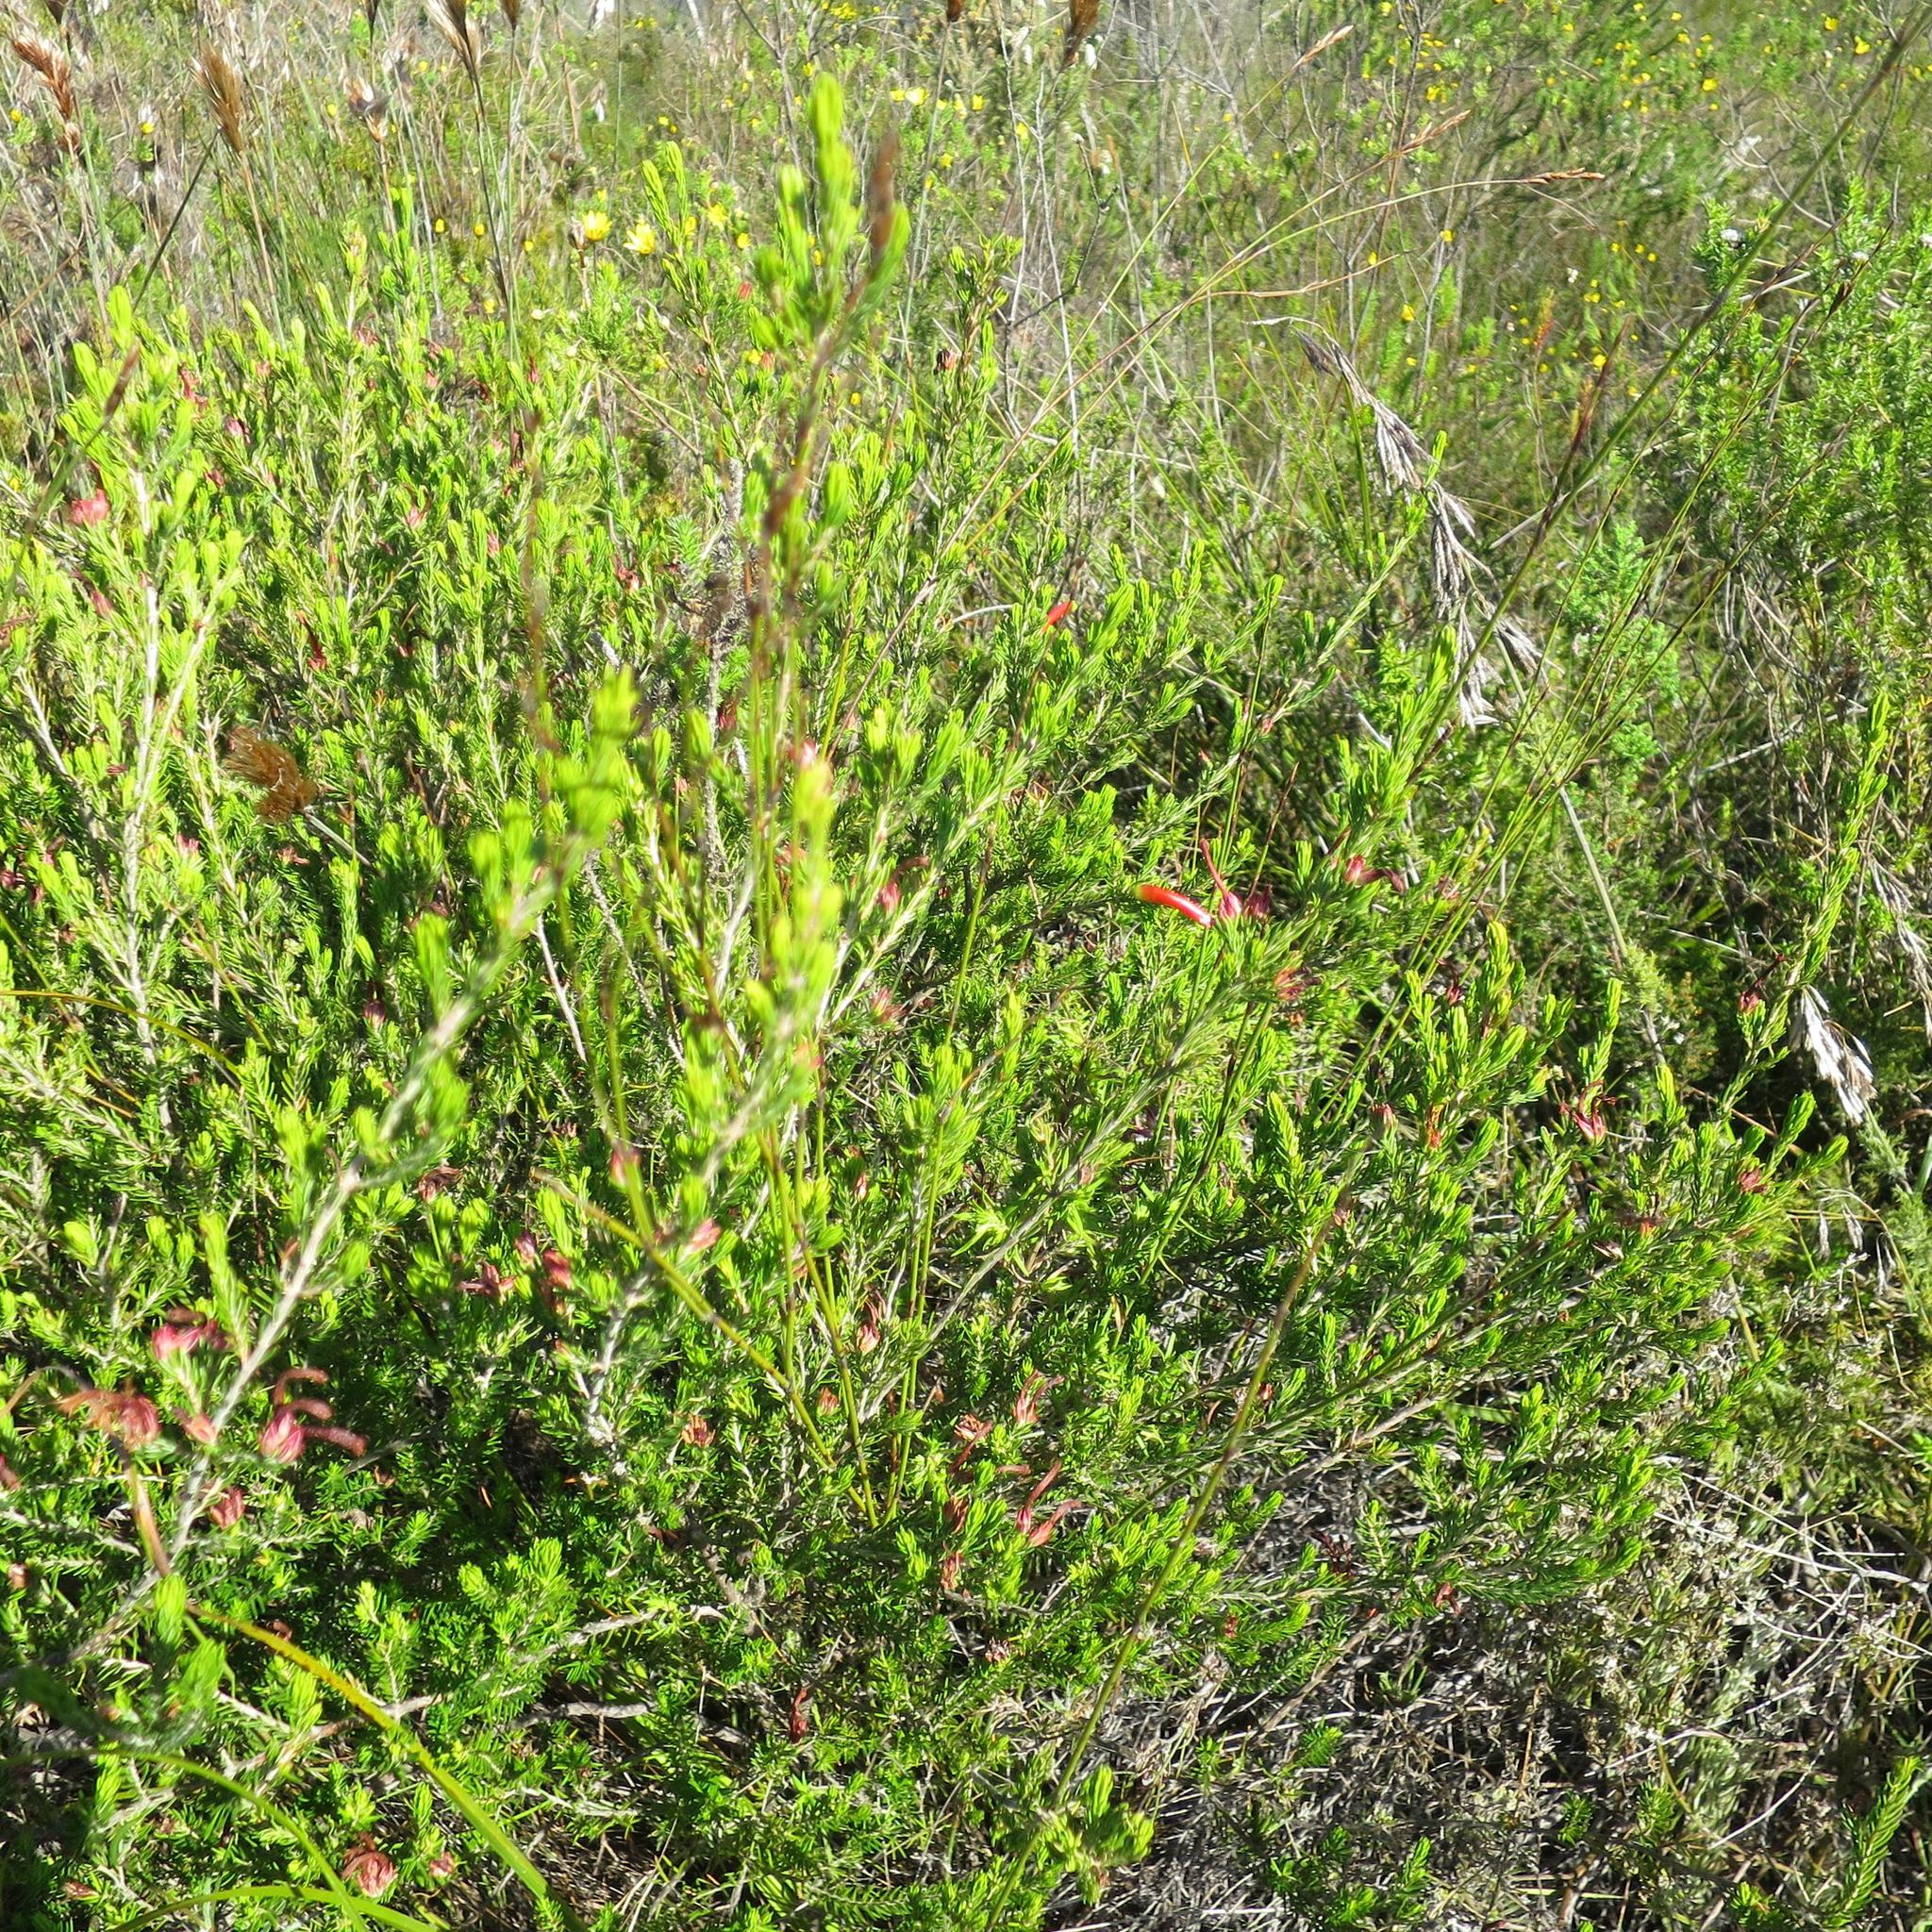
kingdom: Plantae
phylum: Tracheophyta
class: Magnoliopsida
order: Ericales
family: Ericaceae
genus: Erica
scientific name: Erica unicolor
